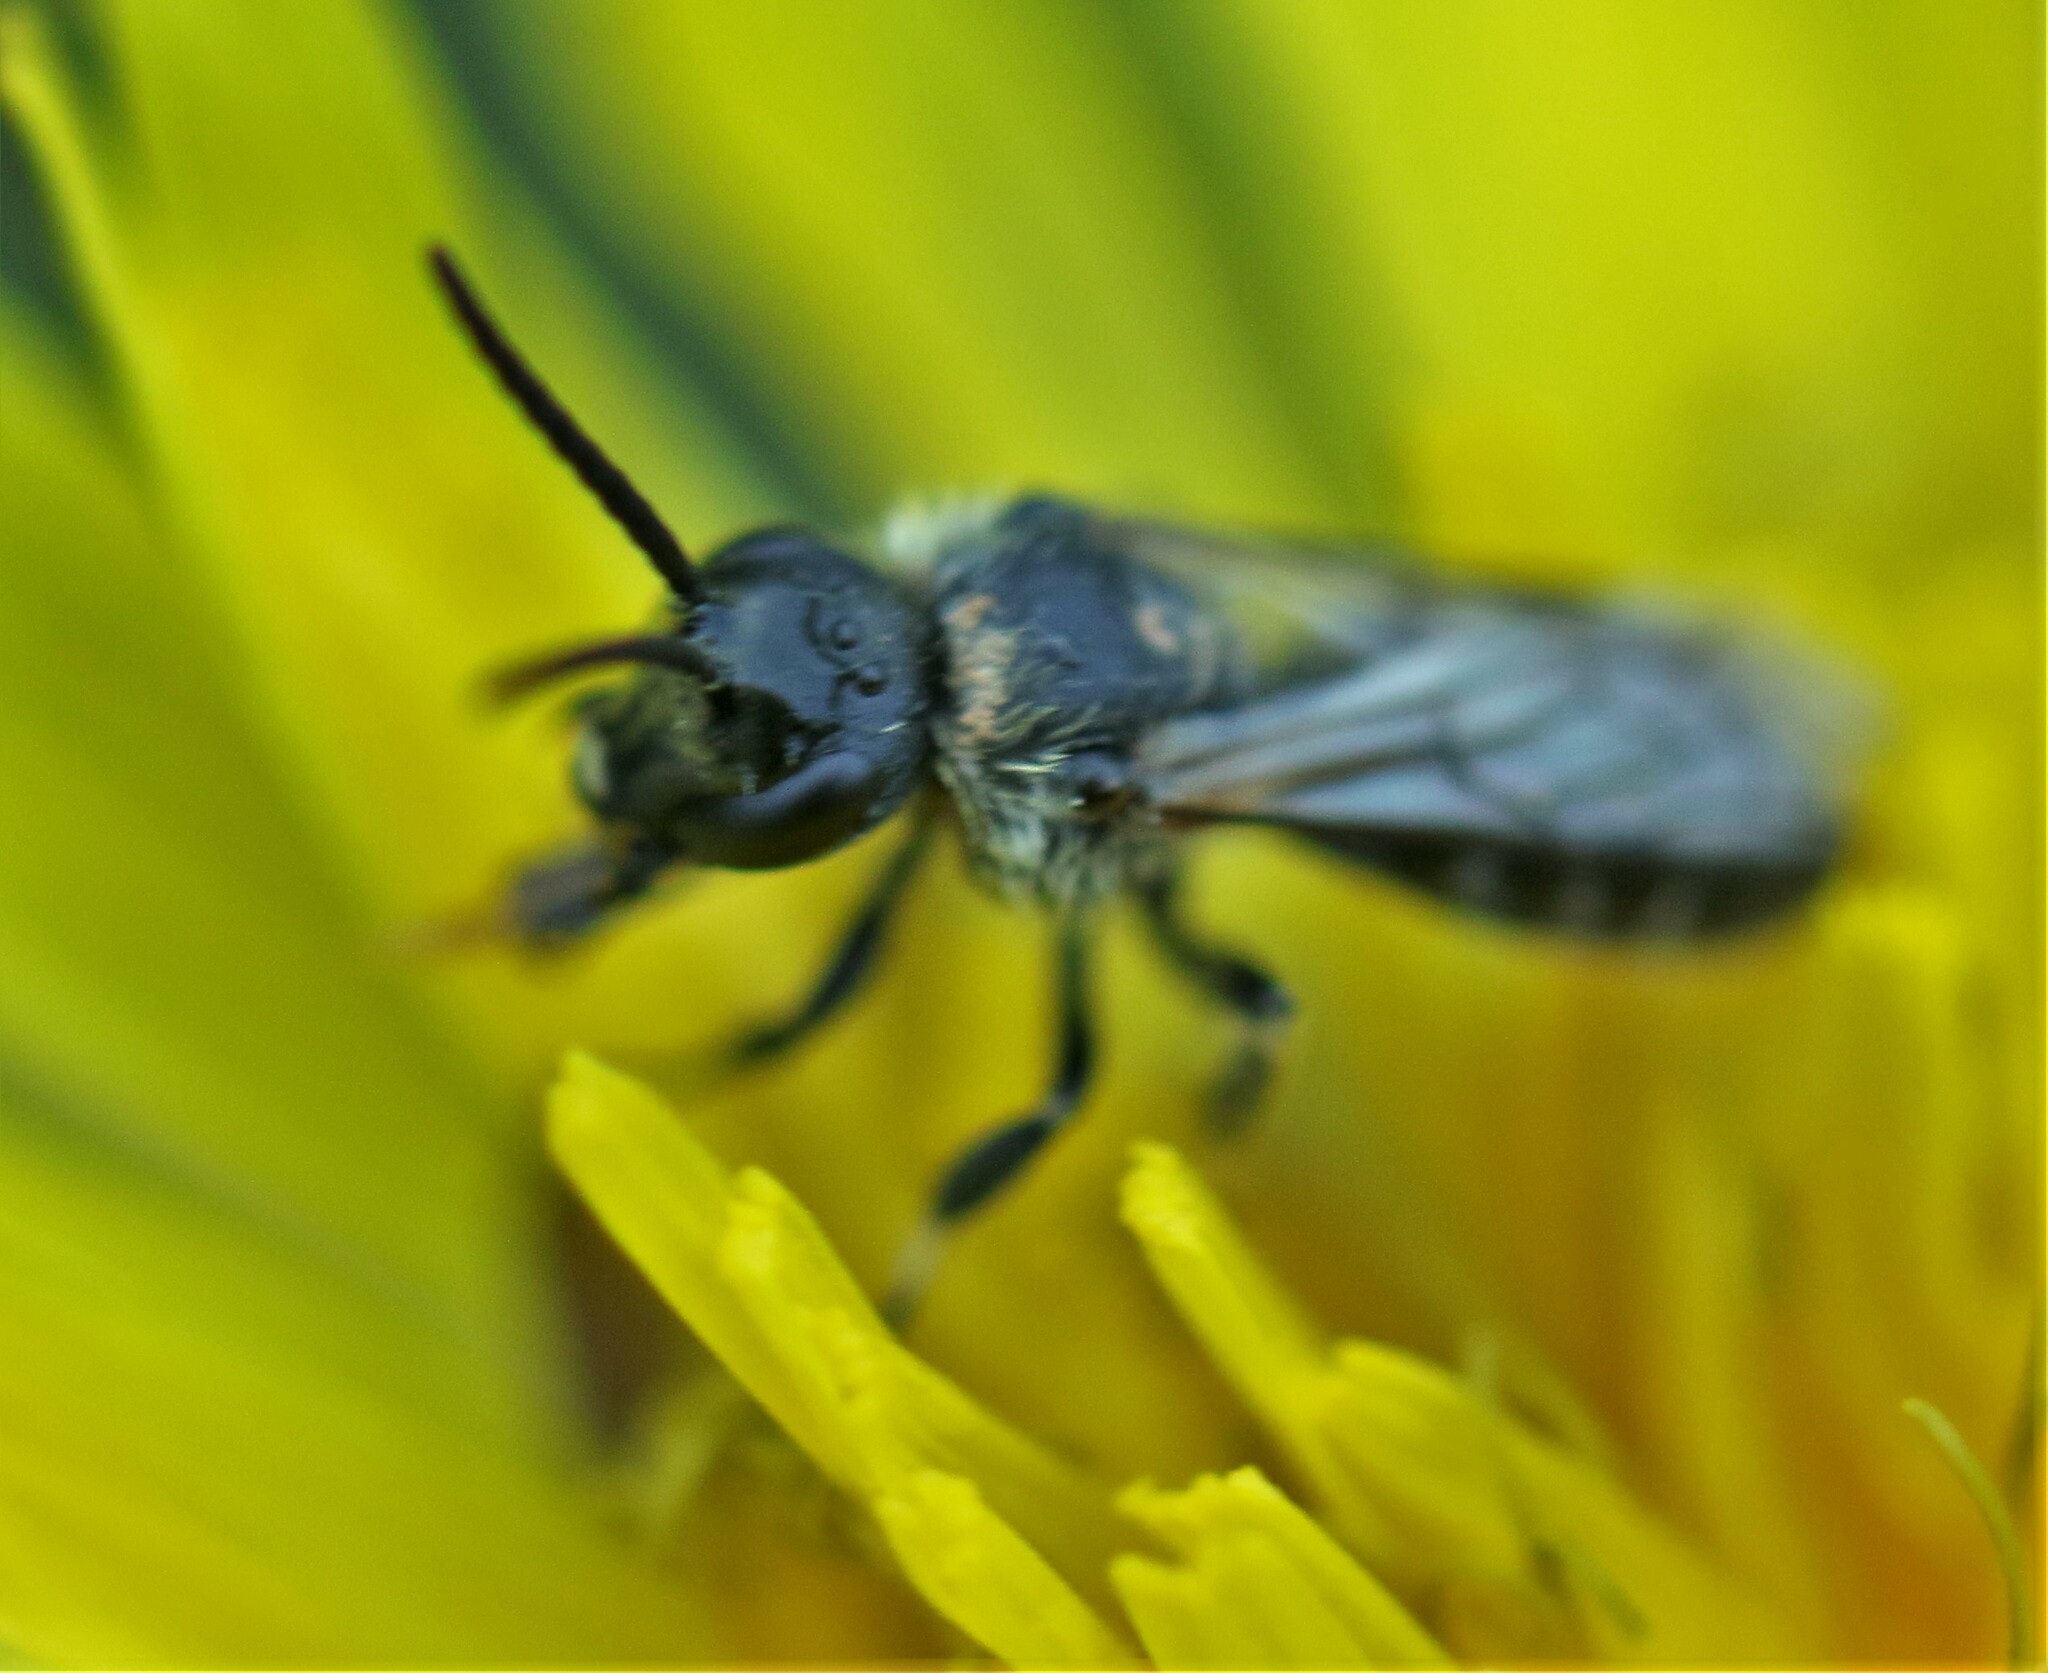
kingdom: Animalia
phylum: Arthropoda
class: Insecta
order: Hymenoptera
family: Halictidae
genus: Lasioglossum
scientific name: Lasioglossum
